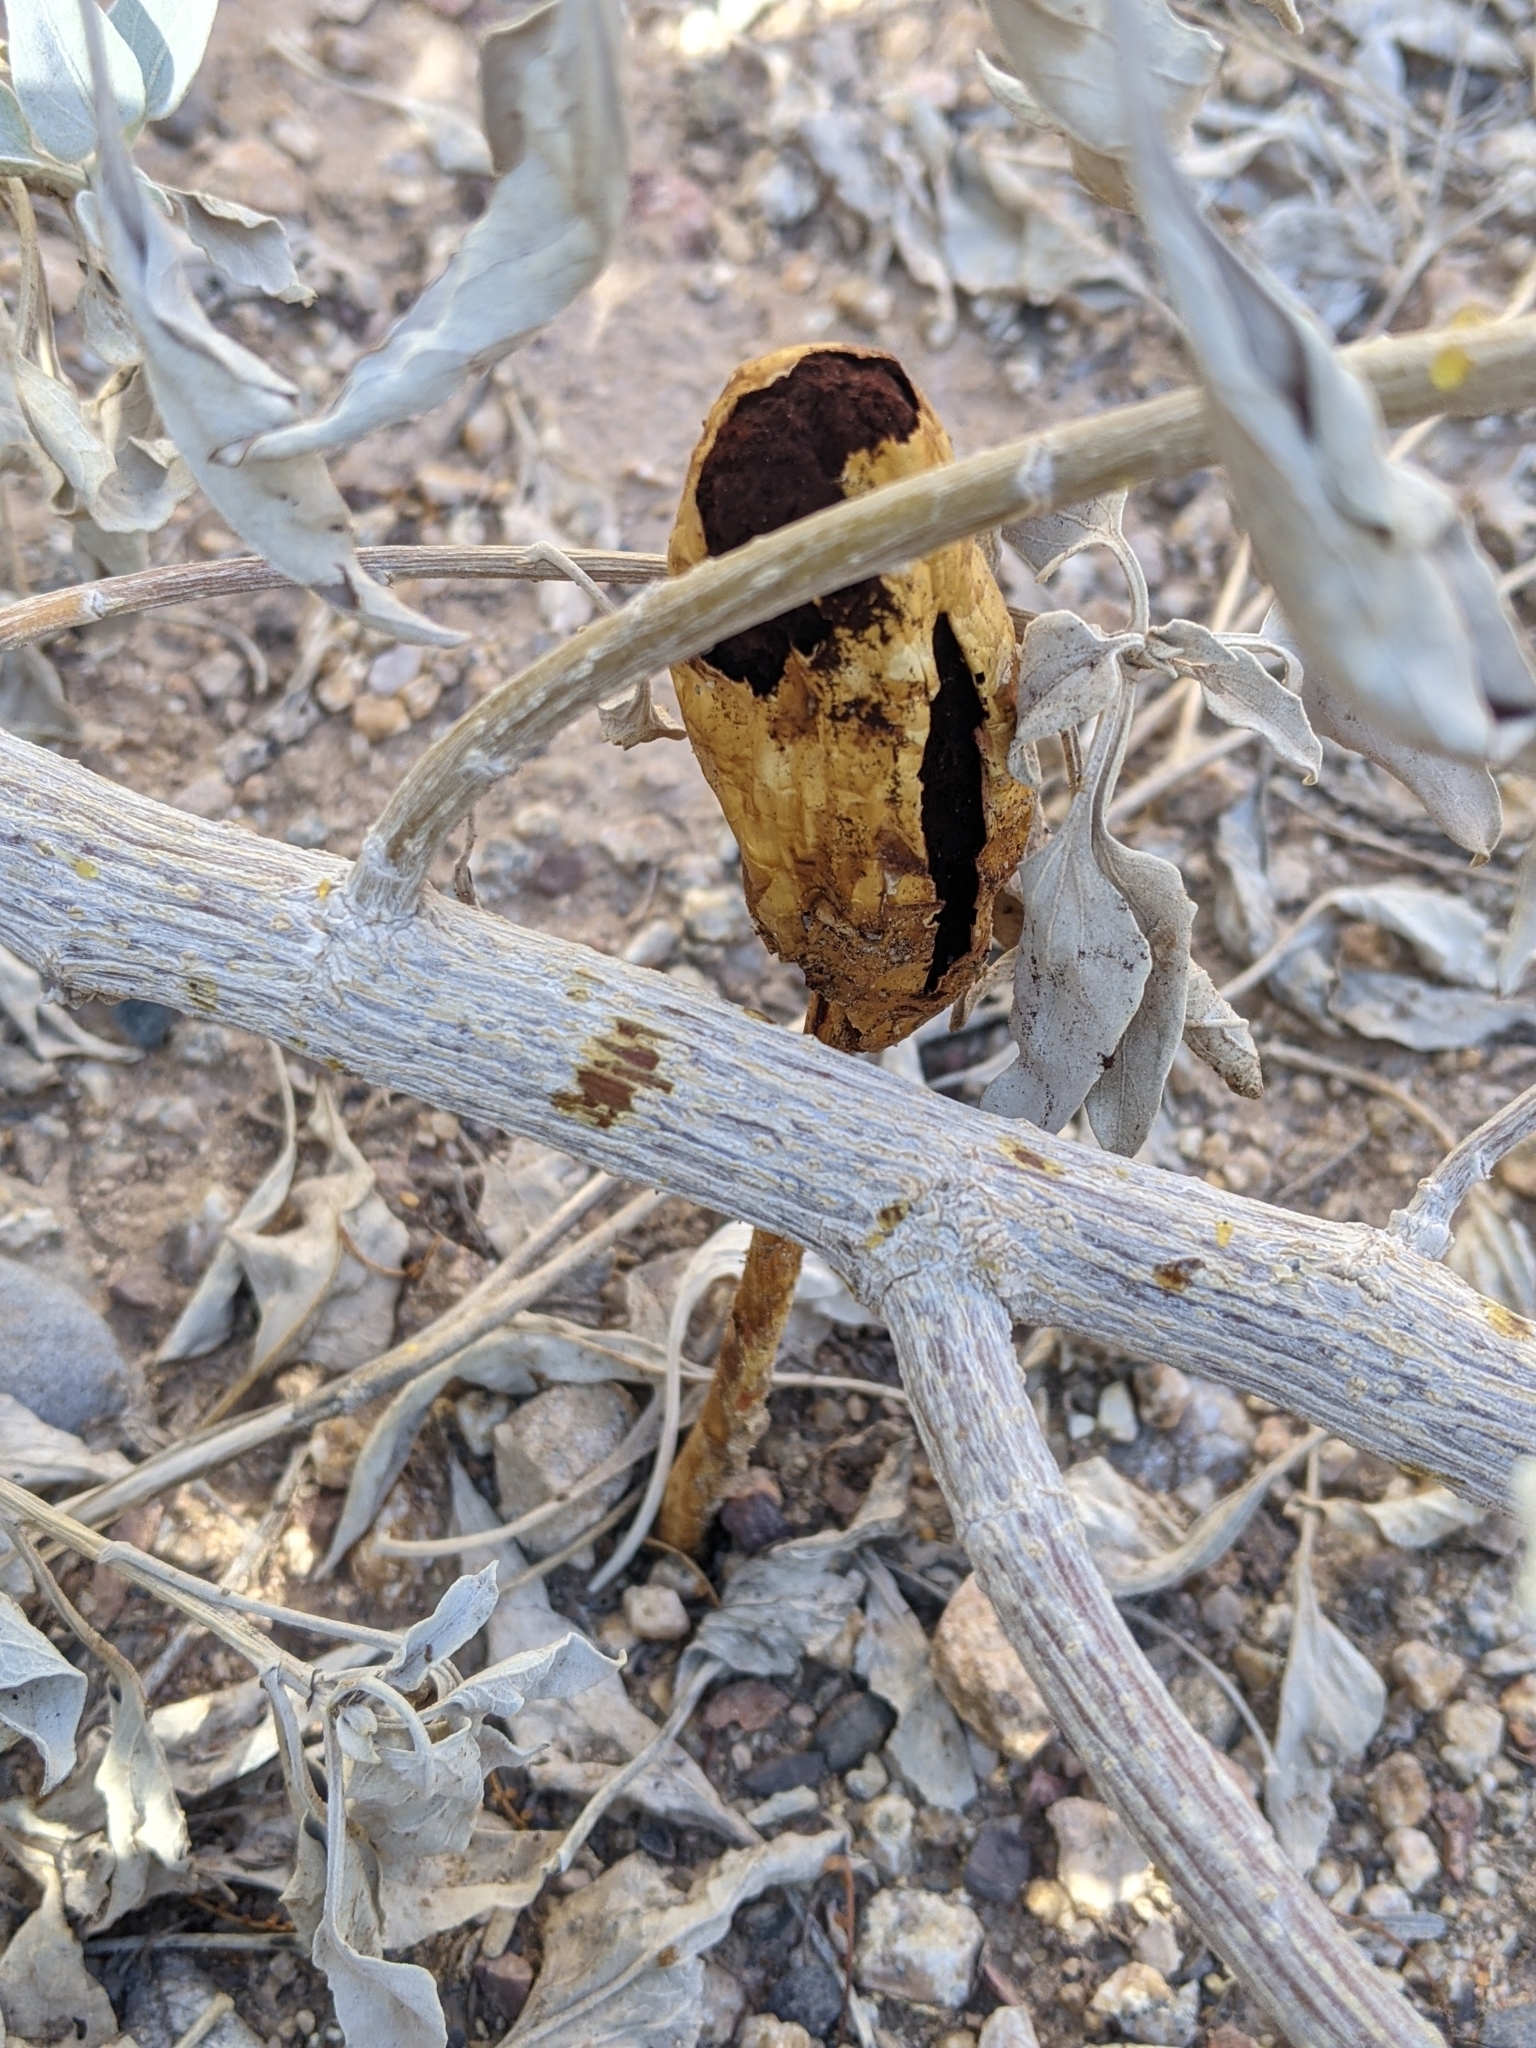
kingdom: Fungi
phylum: Basidiomycota
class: Agaricomycetes
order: Agaricales
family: Agaricaceae
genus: Podaxis
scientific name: Podaxis pistillaris
